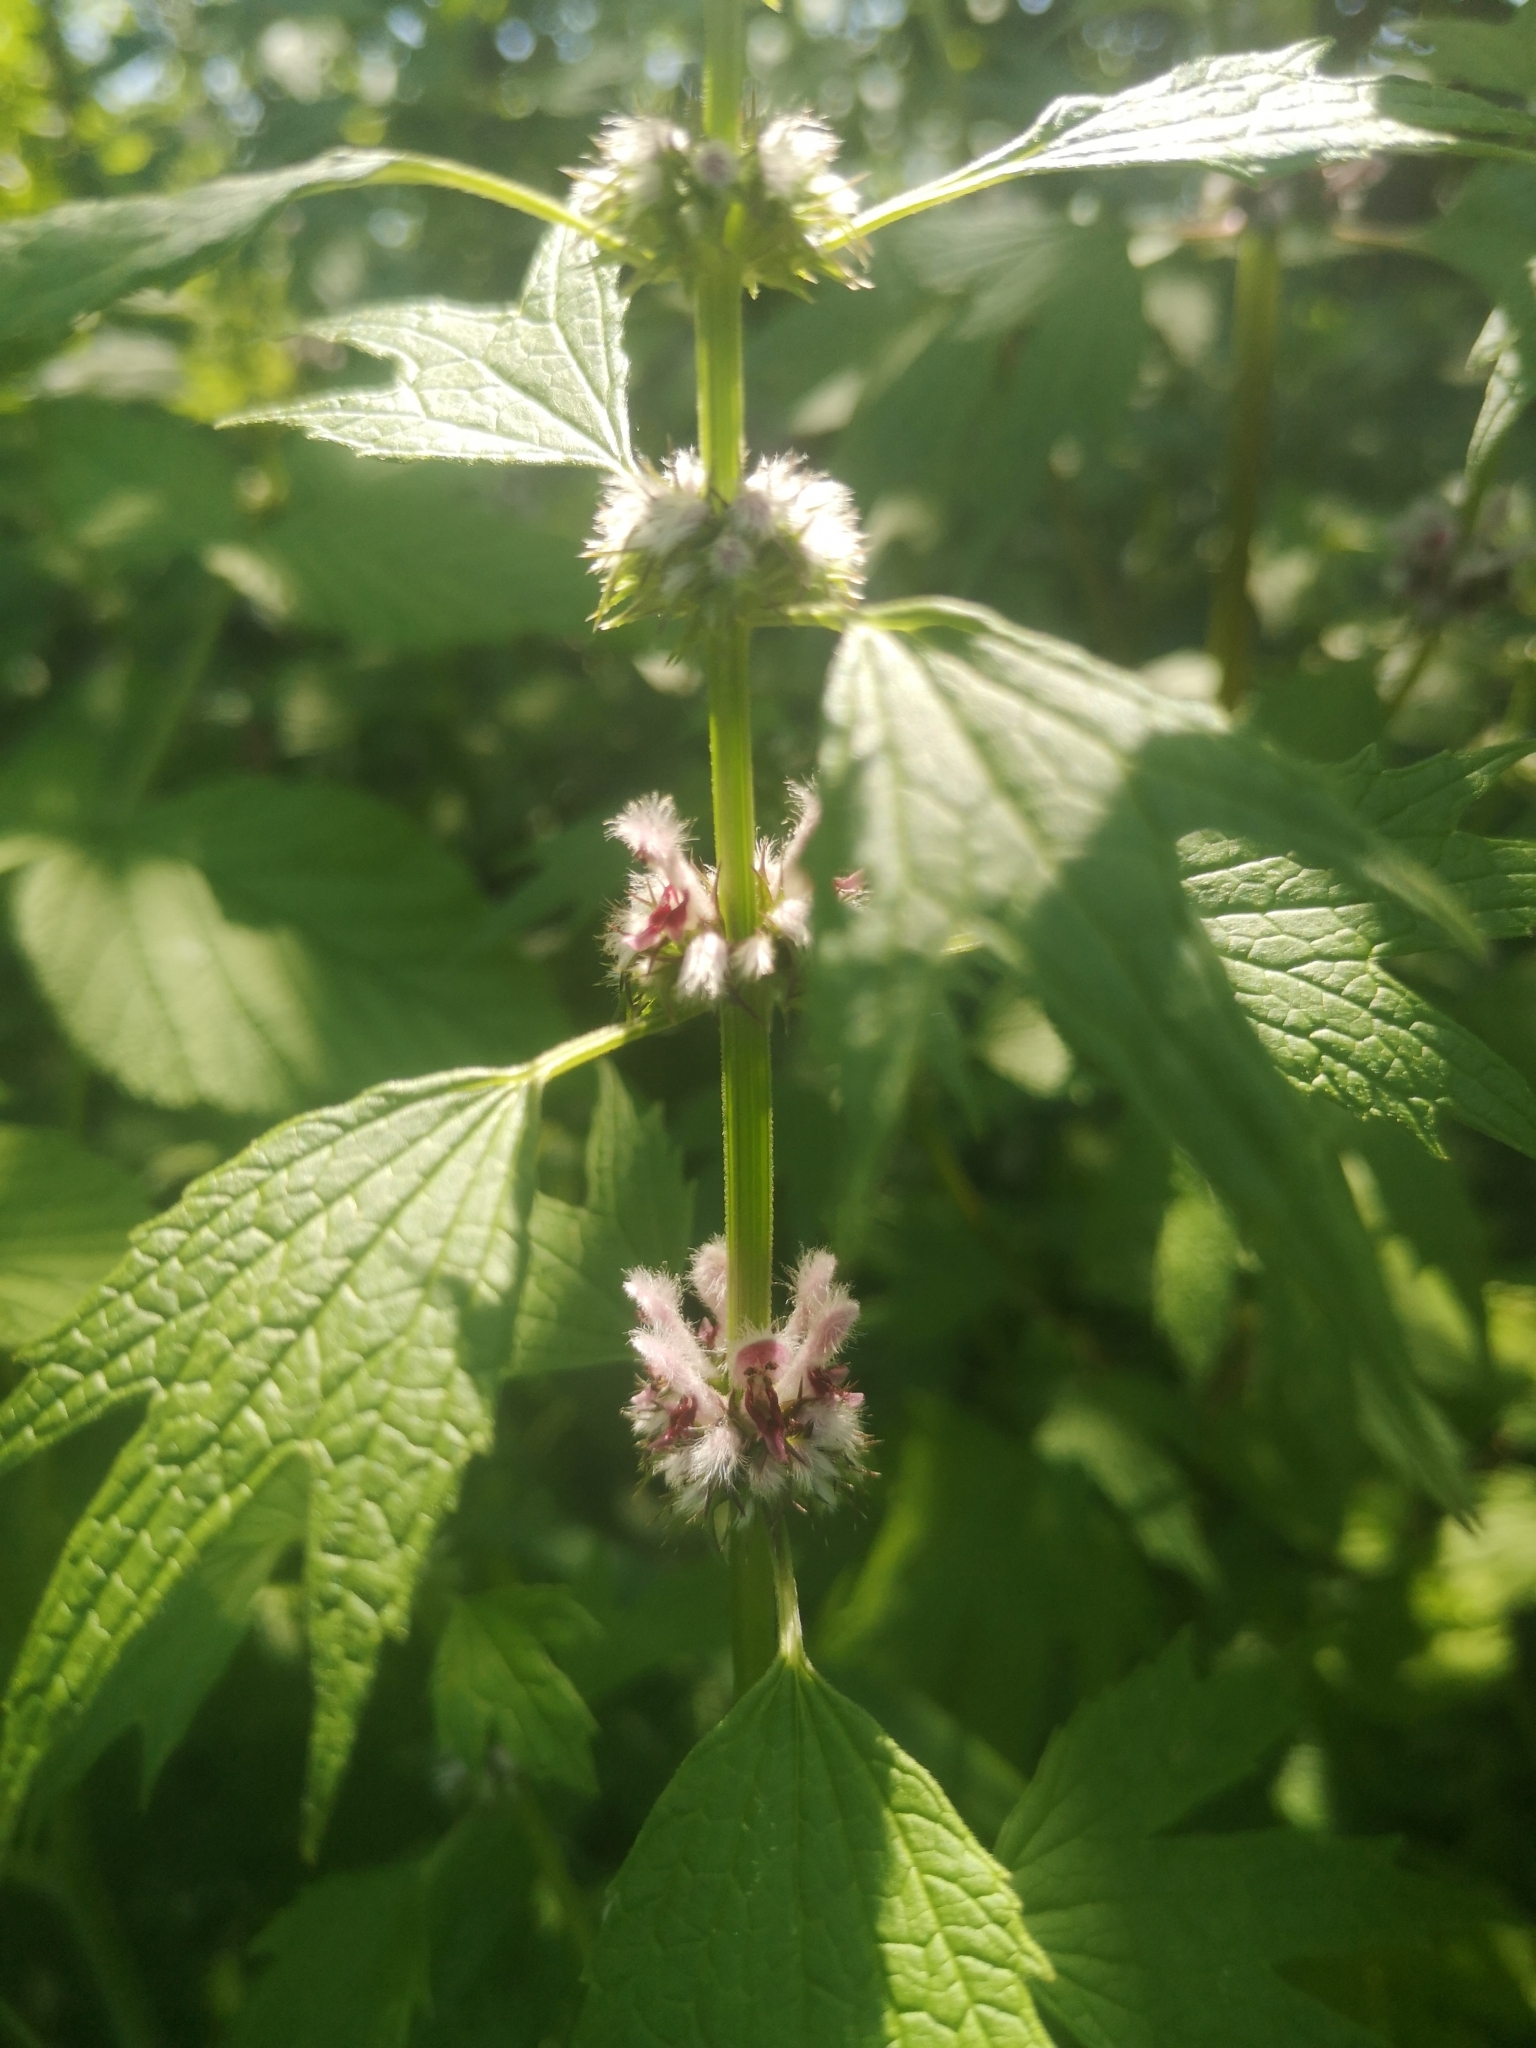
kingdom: Plantae
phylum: Tracheophyta
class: Magnoliopsida
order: Lamiales
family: Lamiaceae
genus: Leonurus
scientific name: Leonurus cardiaca
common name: Motherwort
